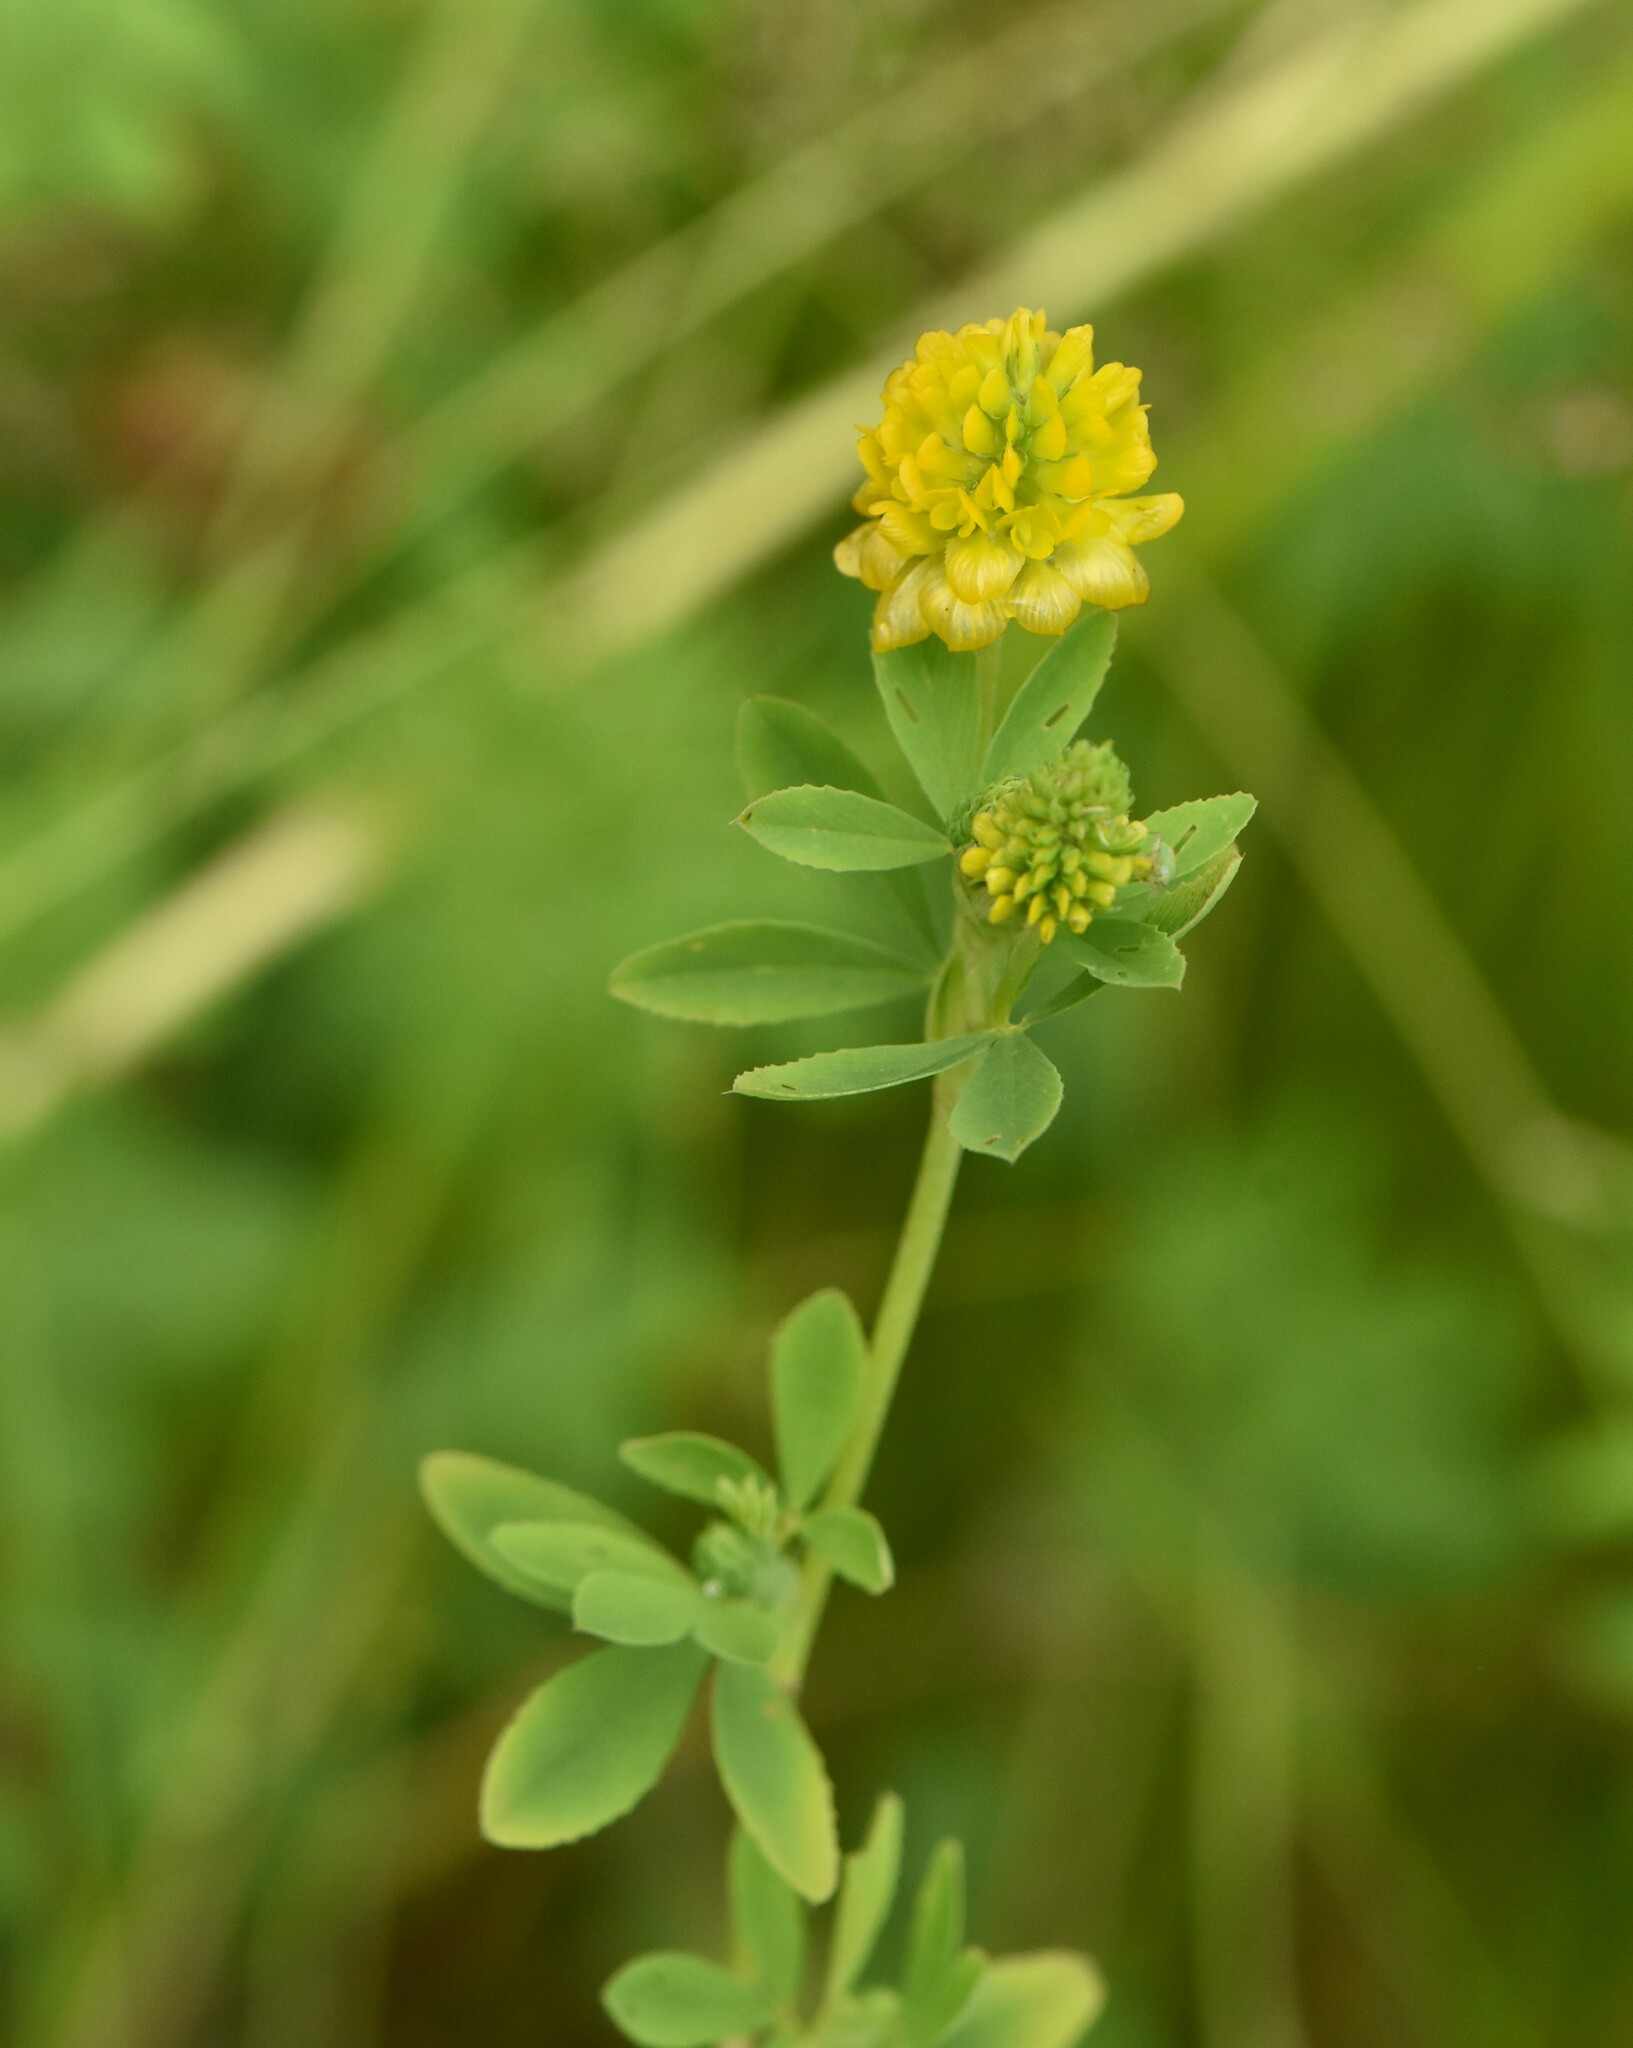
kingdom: Plantae
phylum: Tracheophyta
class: Magnoliopsida
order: Fabales
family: Fabaceae
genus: Trifolium
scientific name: Trifolium aureum
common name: Golden clover
